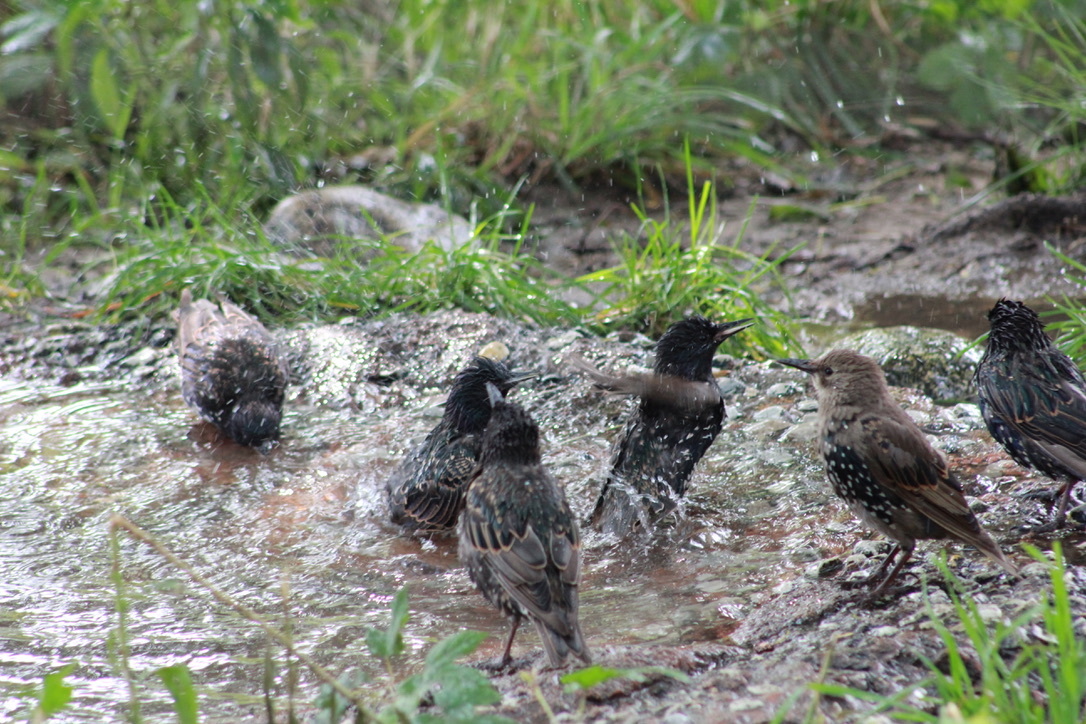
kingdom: Animalia
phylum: Chordata
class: Aves
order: Passeriformes
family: Sturnidae
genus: Sturnus
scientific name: Sturnus vulgaris
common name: Common starling
